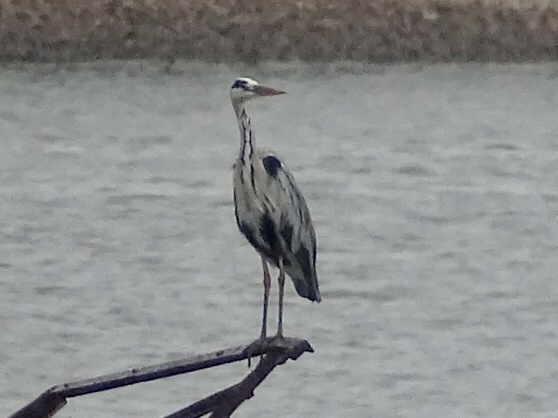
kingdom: Animalia
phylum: Chordata
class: Aves
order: Pelecaniformes
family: Ardeidae
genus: Ardea
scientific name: Ardea cinerea
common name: Grey heron
